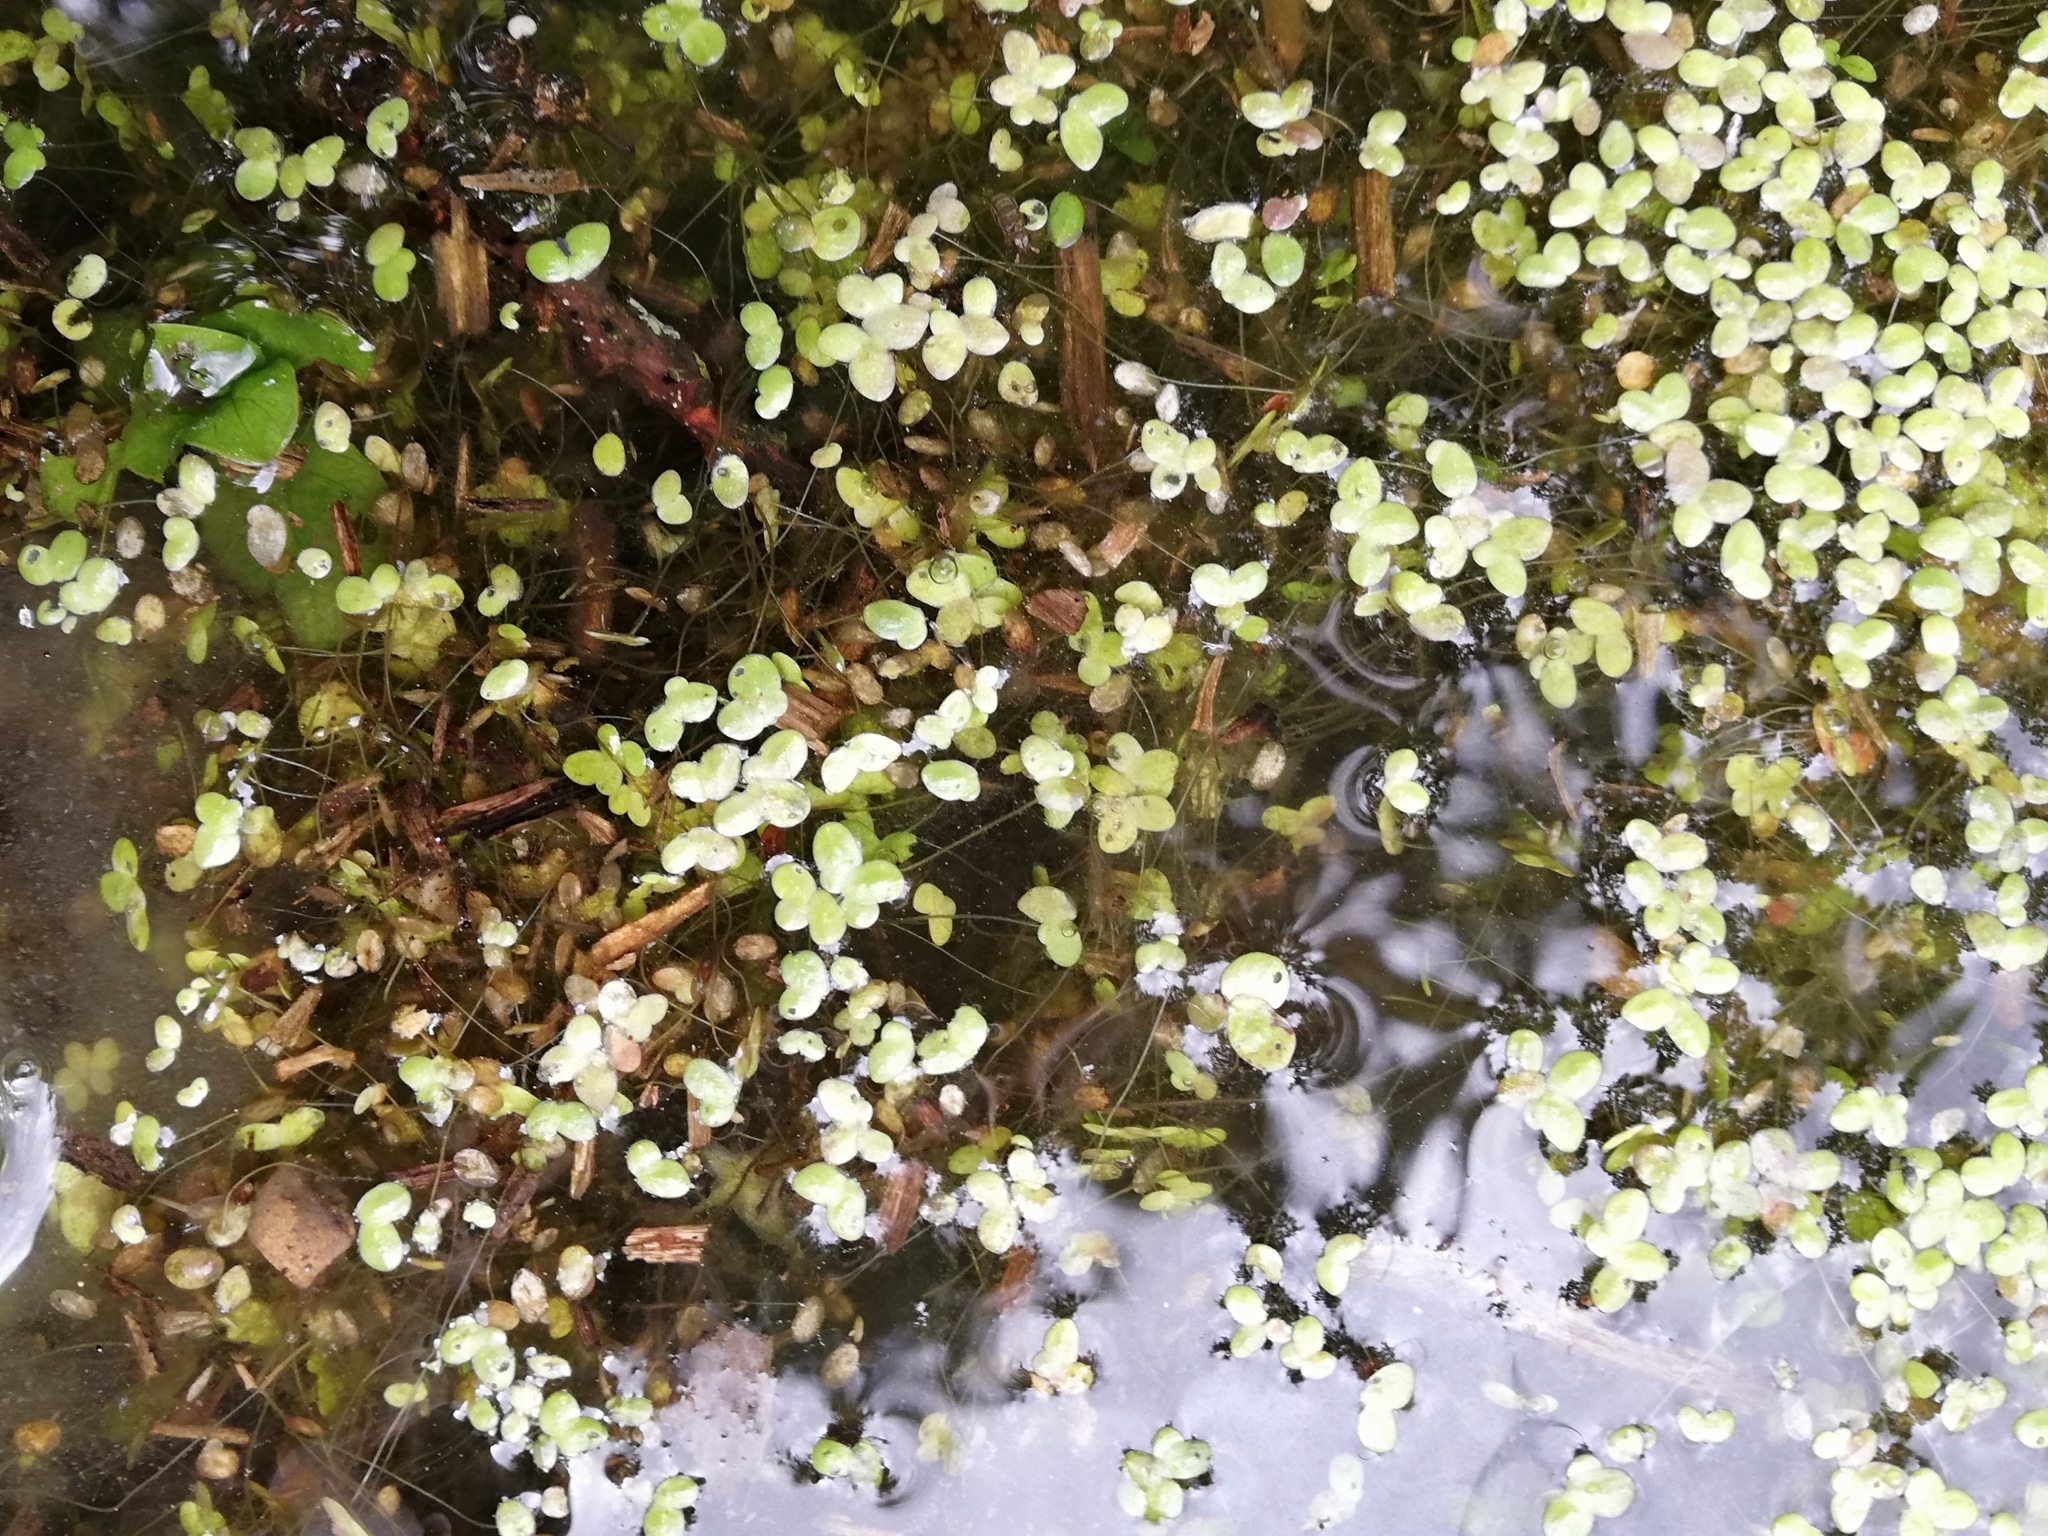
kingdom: Plantae
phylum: Tracheophyta
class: Liliopsida
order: Alismatales
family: Araceae
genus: Lemna
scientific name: Lemna minor
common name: Common duckweed
